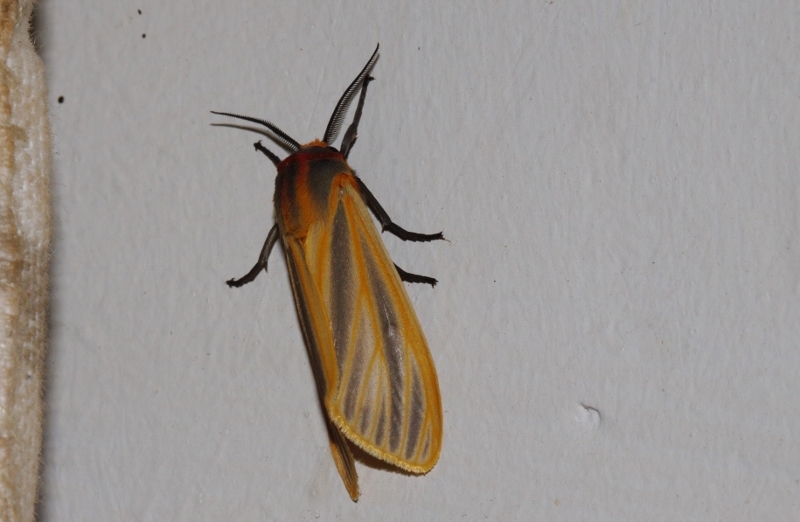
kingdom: Animalia
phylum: Arthropoda
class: Insecta
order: Lepidoptera
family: Erebidae
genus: Pseudoradiarctia
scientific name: Pseudoradiarctia scita
